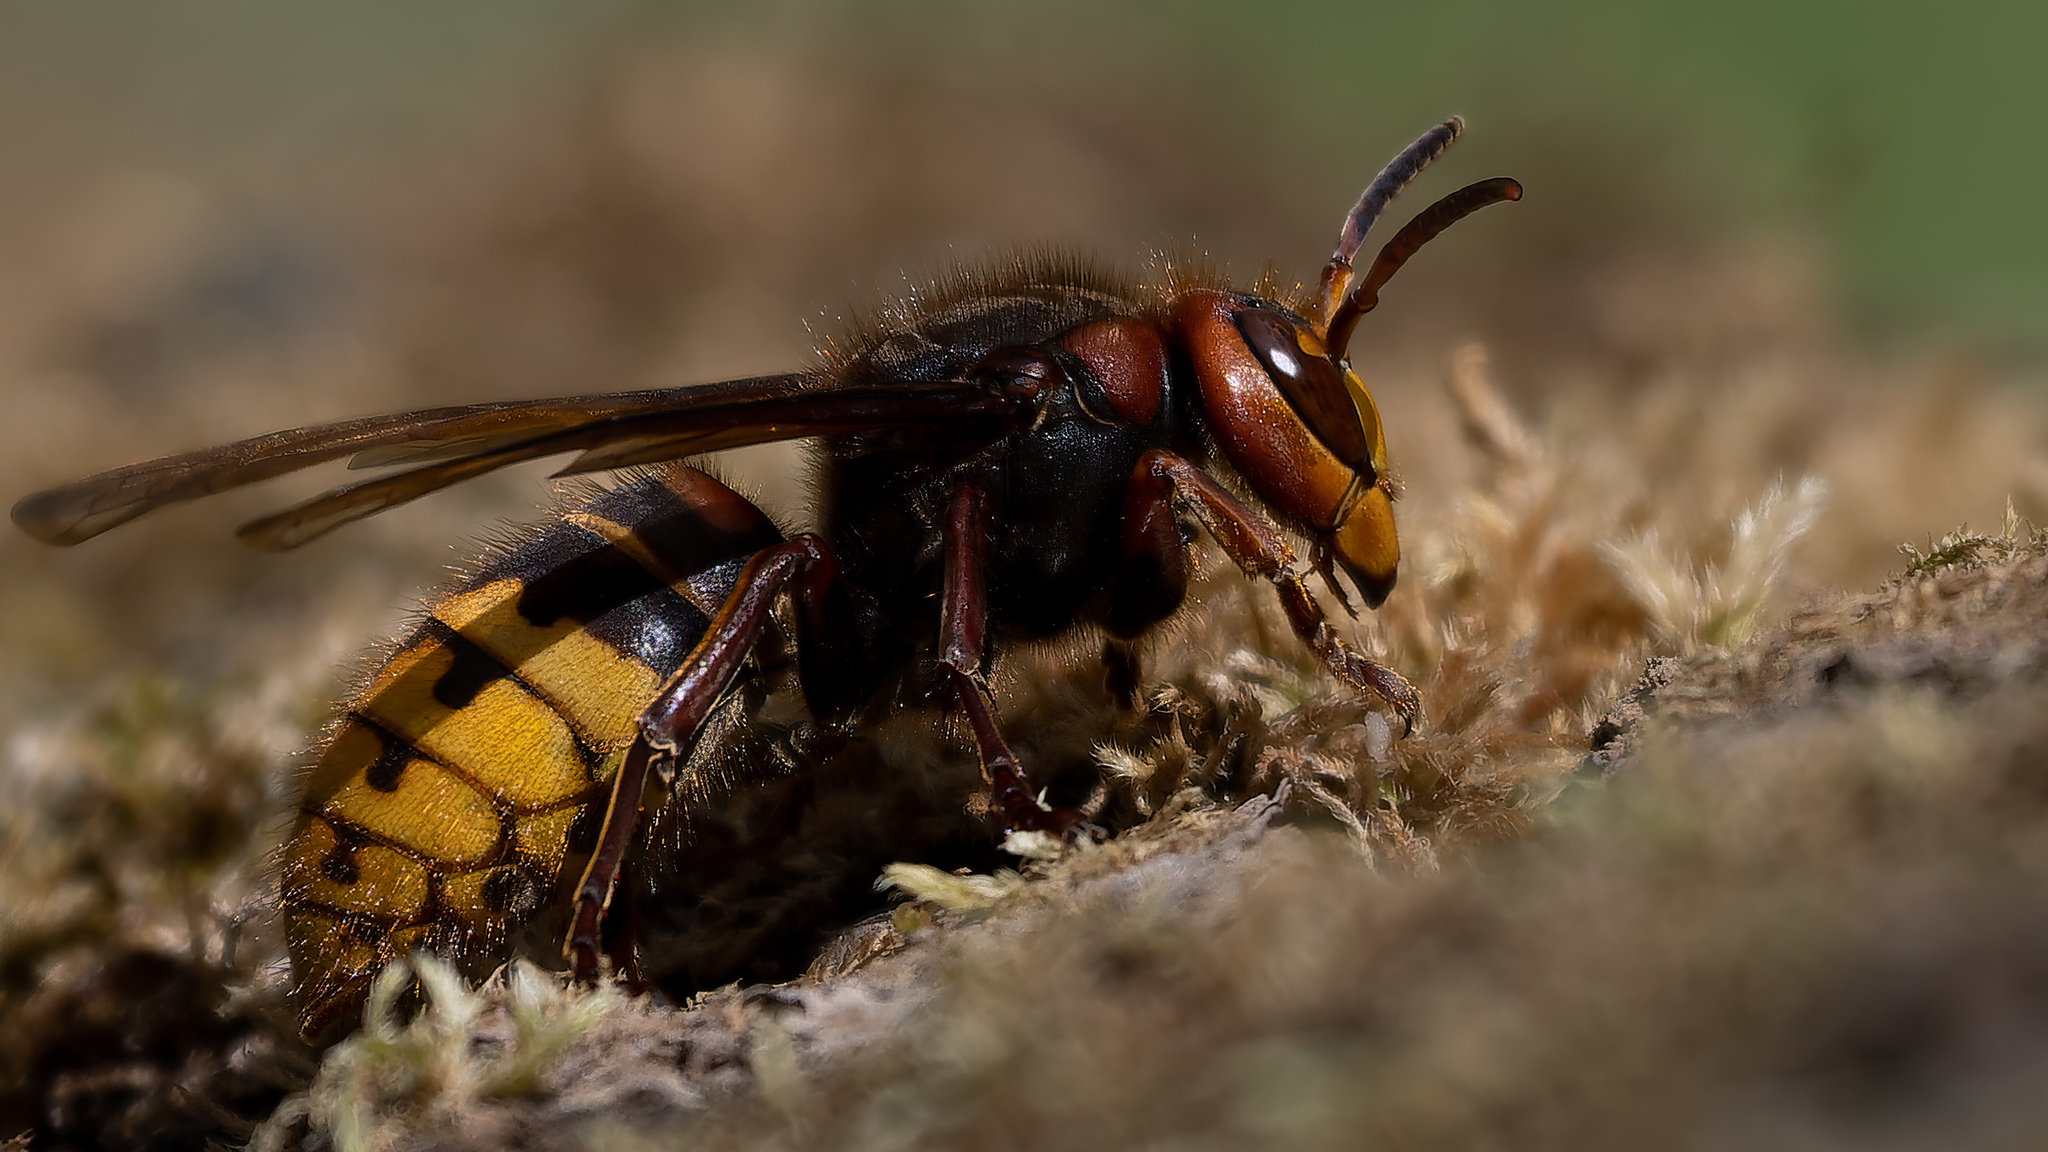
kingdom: Animalia
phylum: Arthropoda
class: Insecta
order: Hymenoptera
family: Vespidae
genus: Vespa
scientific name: Vespa crabro
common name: Hornet
